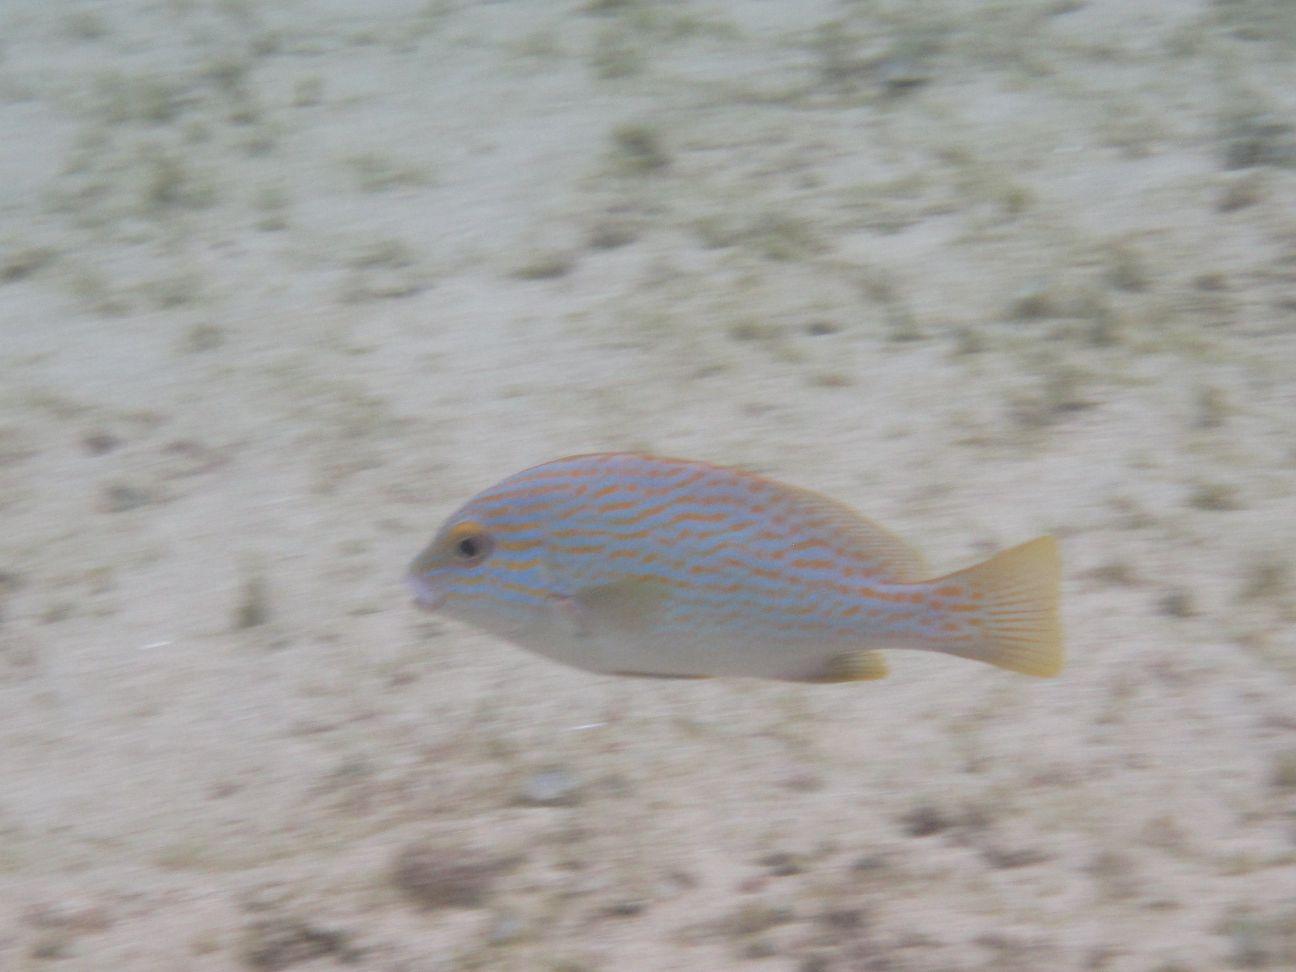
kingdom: Animalia
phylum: Chordata
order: Perciformes
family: Haemulidae
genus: Plectorhinchus
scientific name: Plectorhinchus flavomaculatus
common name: Netted sweetlips
